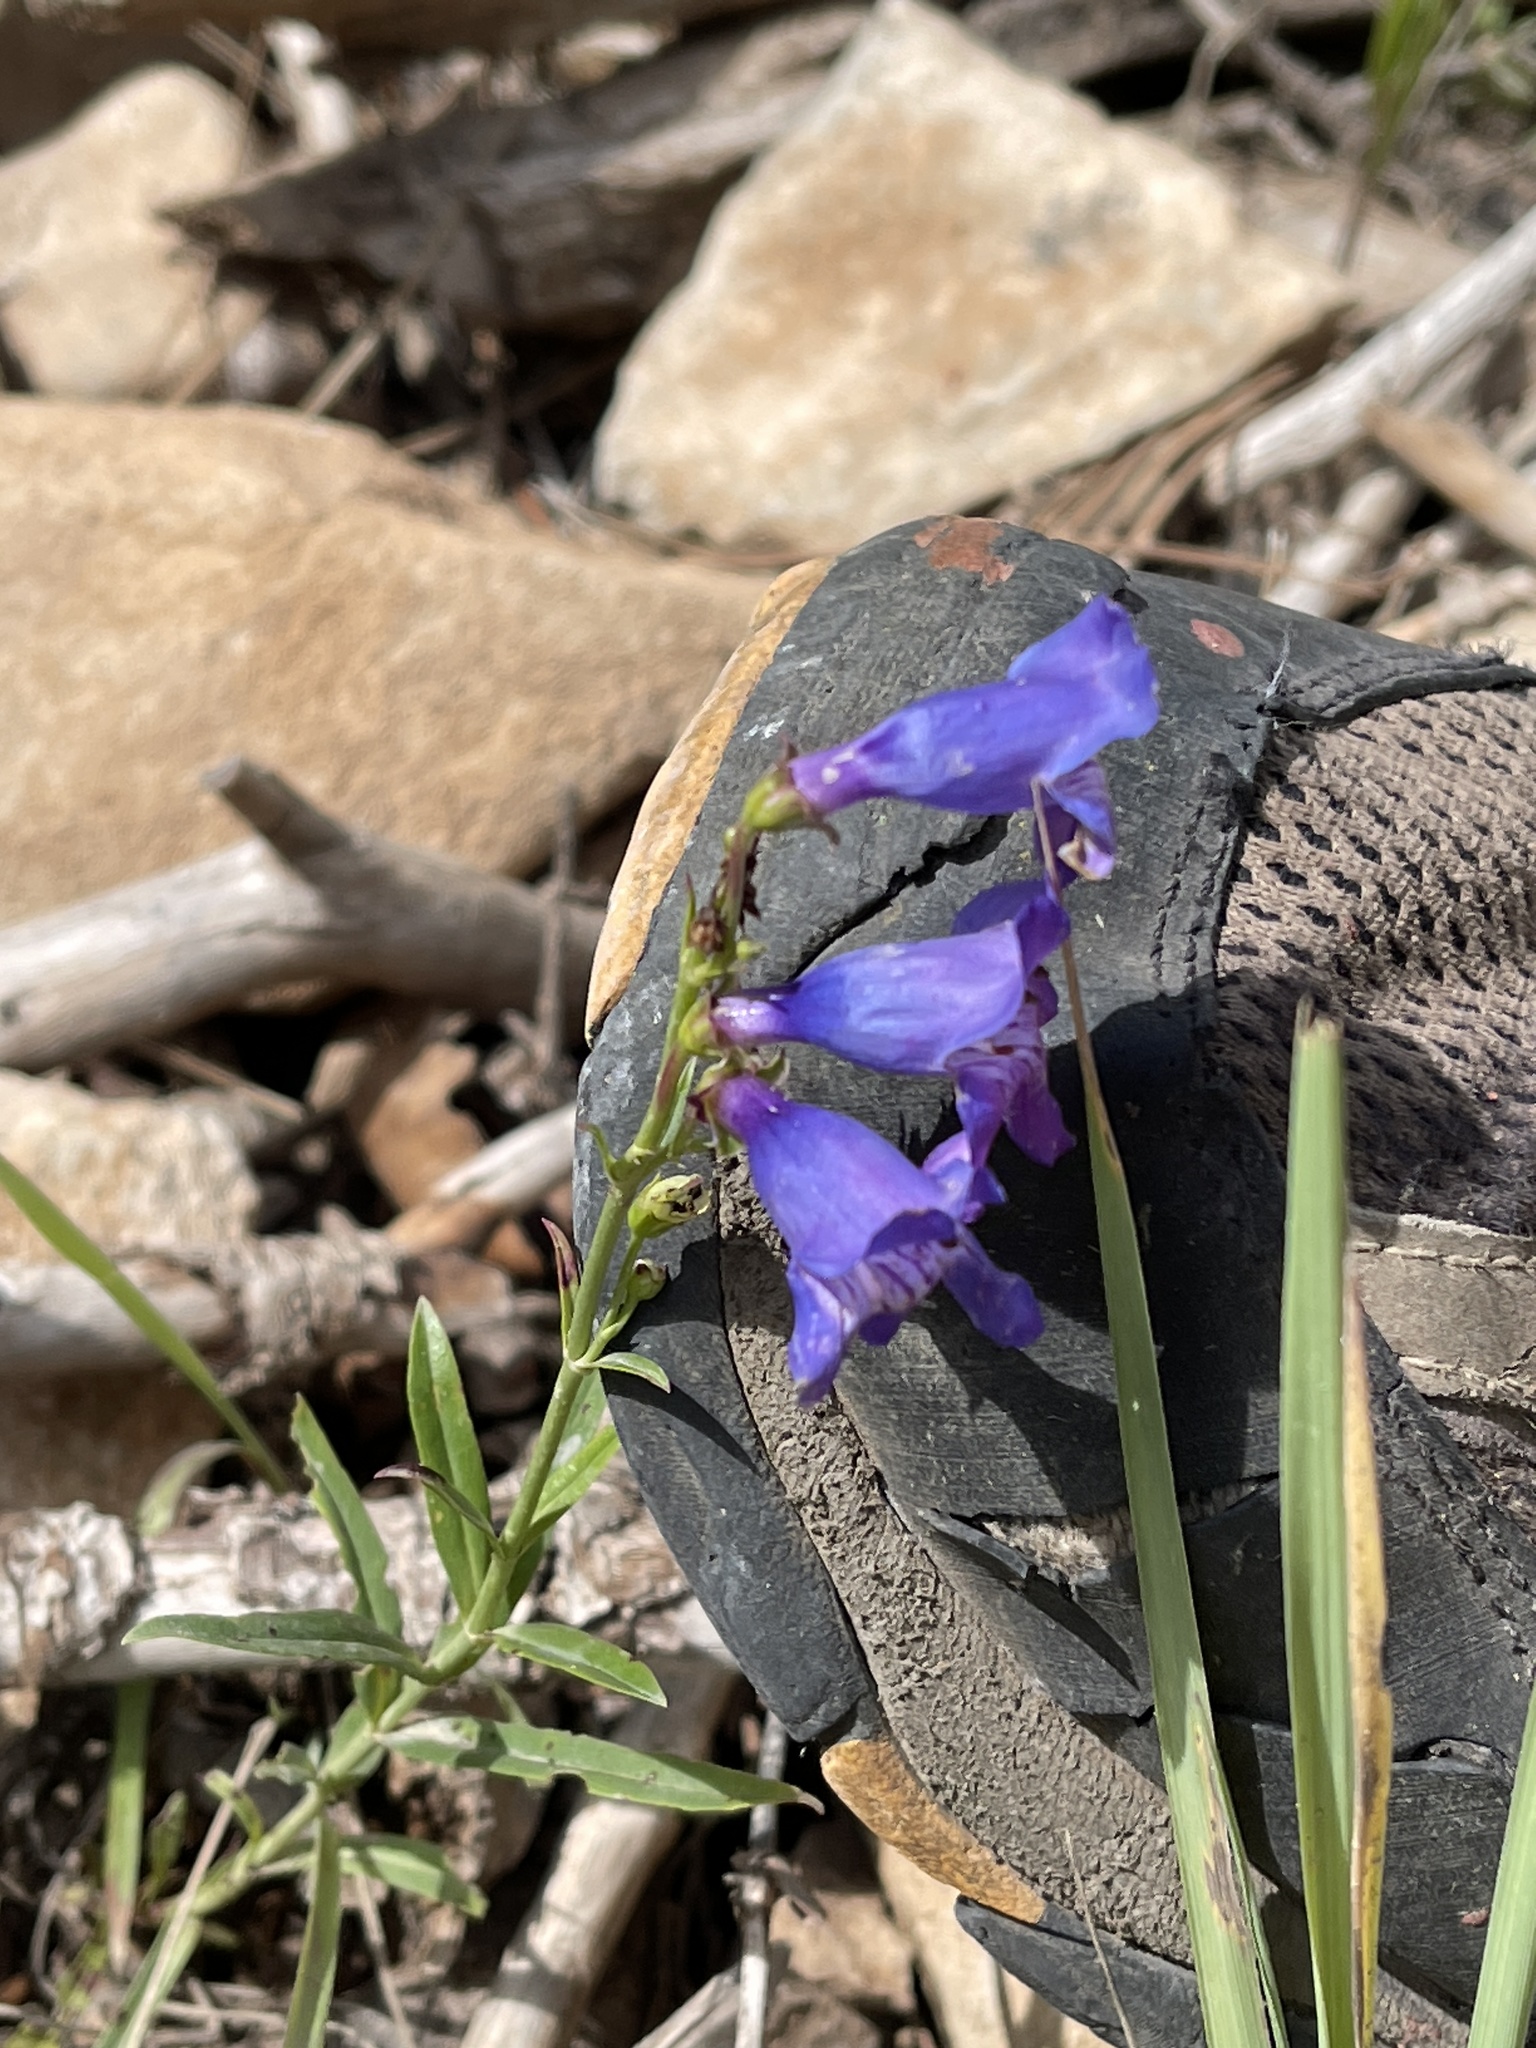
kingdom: Plantae
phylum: Tracheophyta
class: Magnoliopsida
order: Lamiales
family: Plantaginaceae
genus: Penstemon
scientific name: Penstemon neomexicanus
